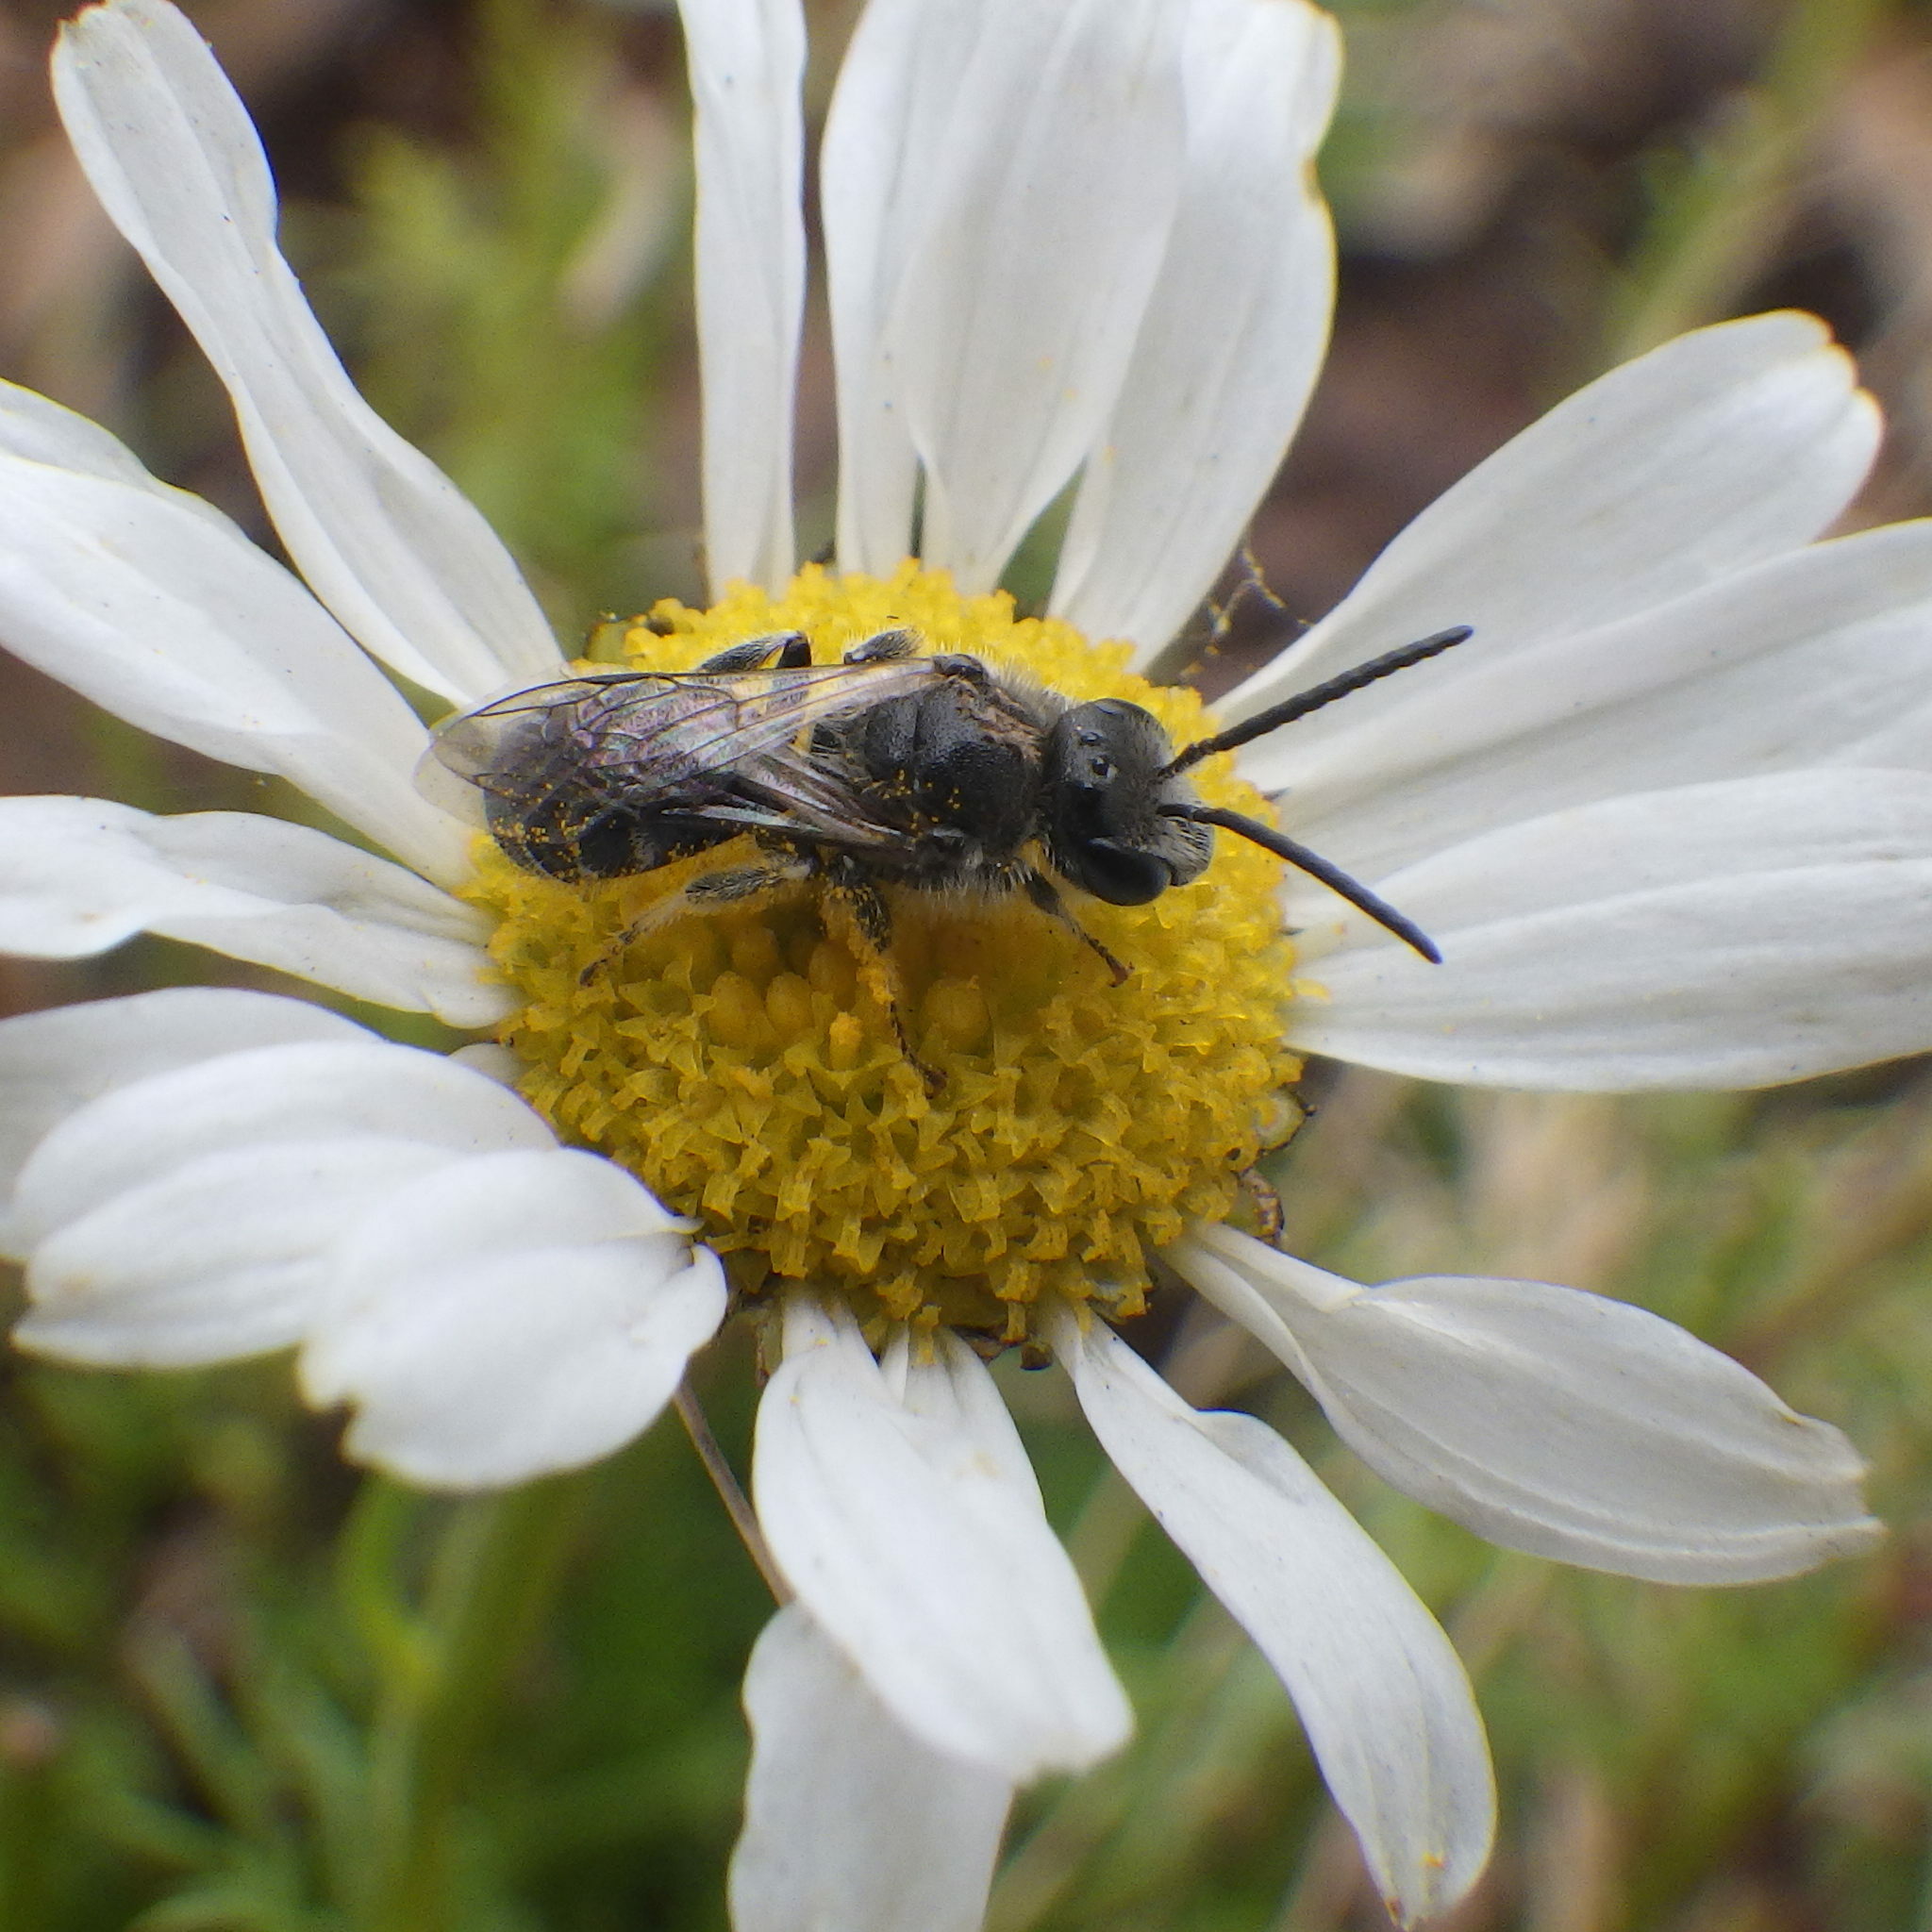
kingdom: Animalia
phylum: Arthropoda
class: Insecta
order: Hymenoptera
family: Halictidae
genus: Lasioglossum
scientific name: Lasioglossum leucozonium
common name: White-zoned furrow bee
